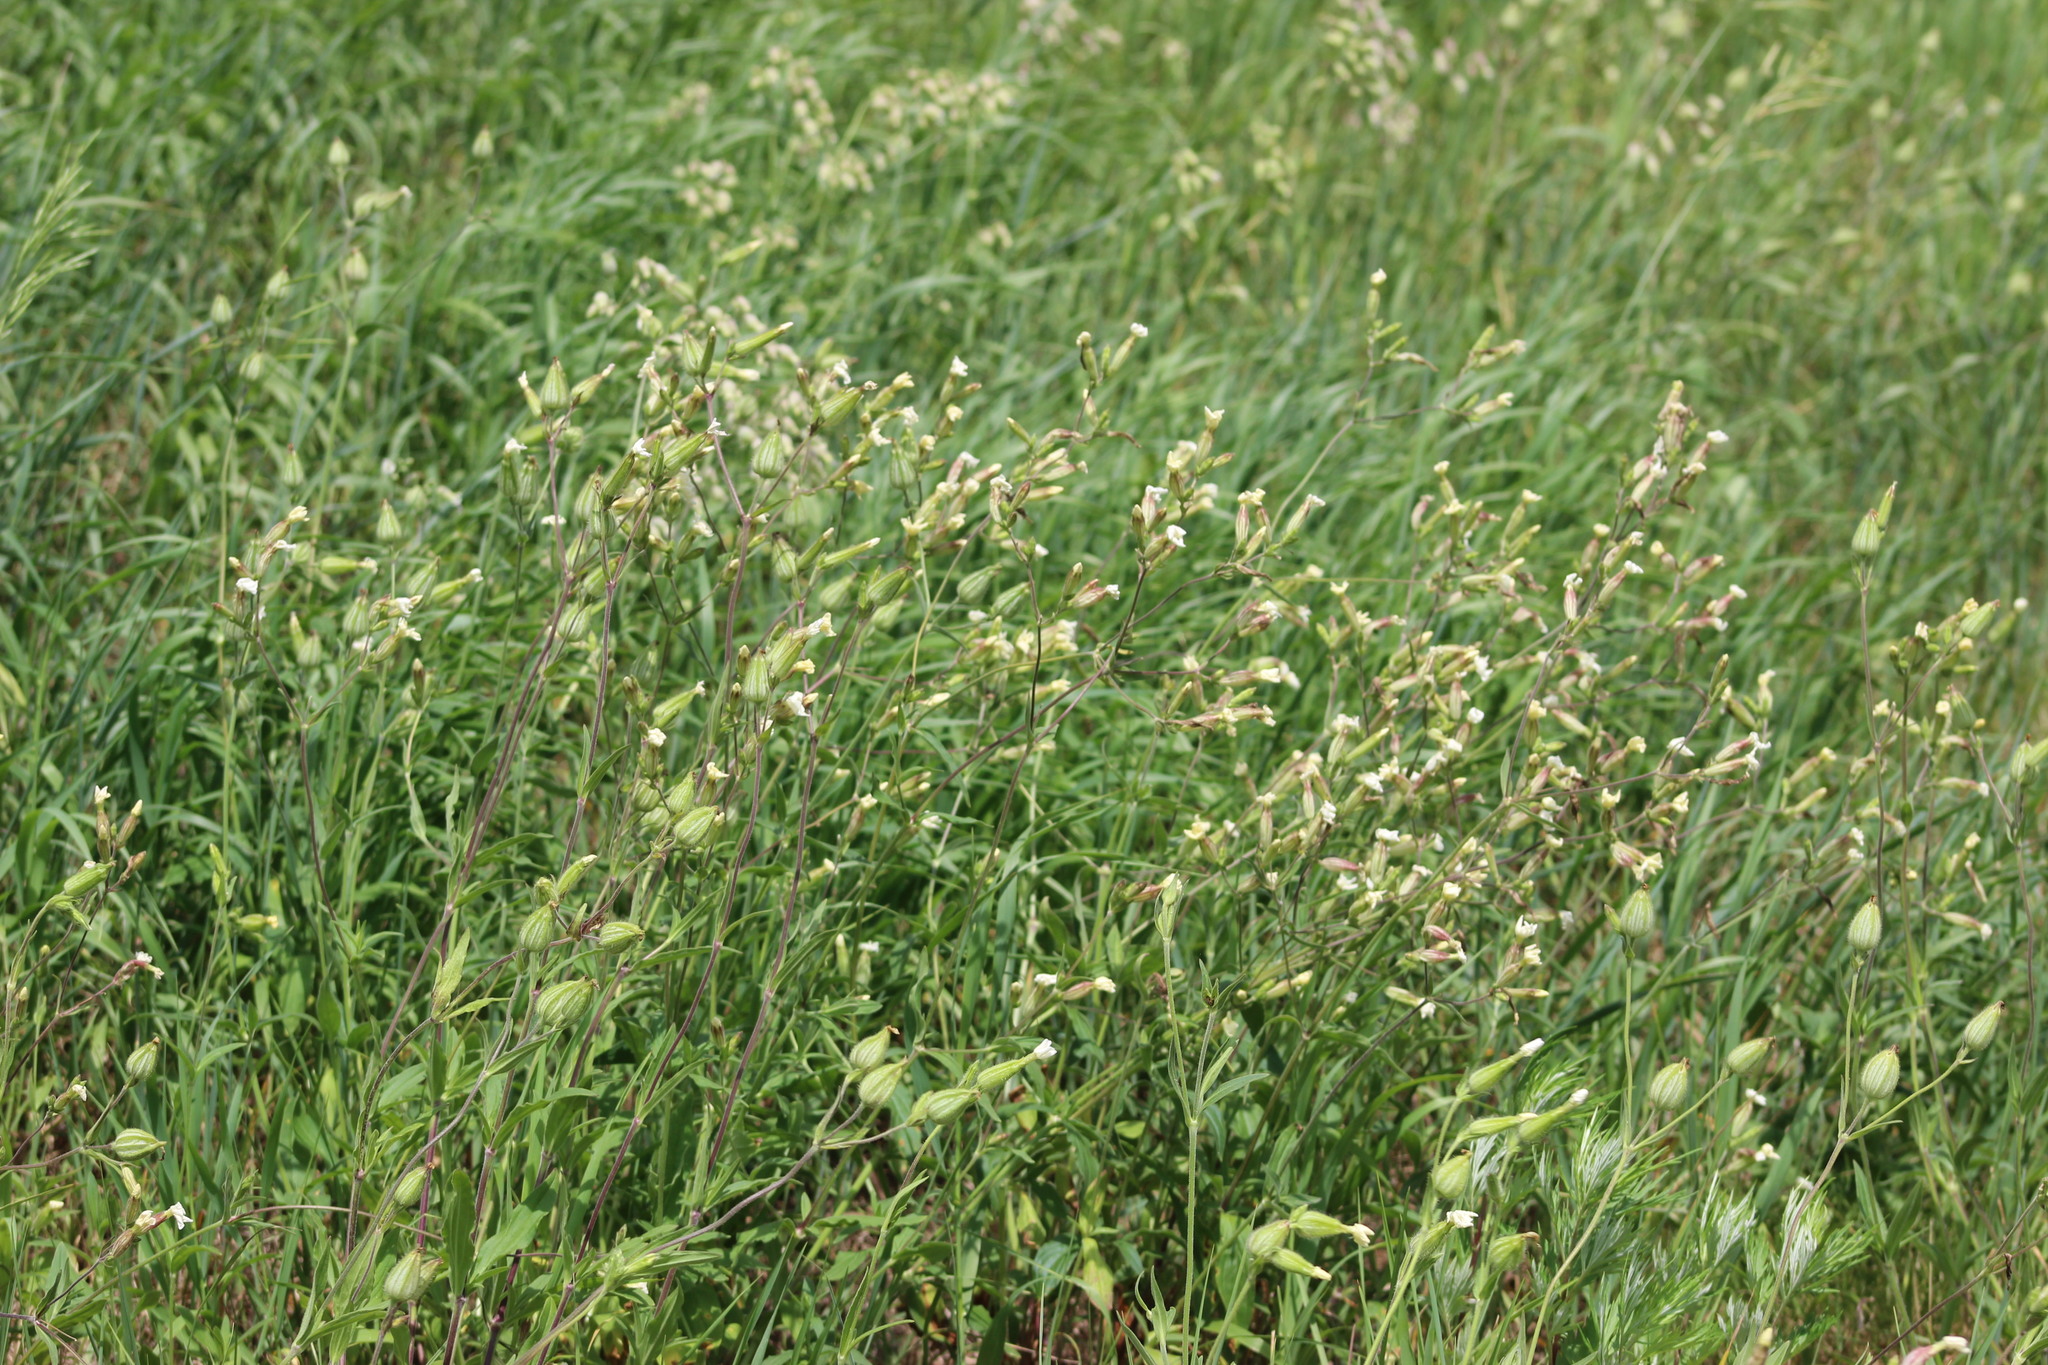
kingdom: Plantae
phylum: Tracheophyta
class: Magnoliopsida
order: Caryophyllales
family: Caryophyllaceae
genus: Silene
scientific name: Silene latifolia
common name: White campion
